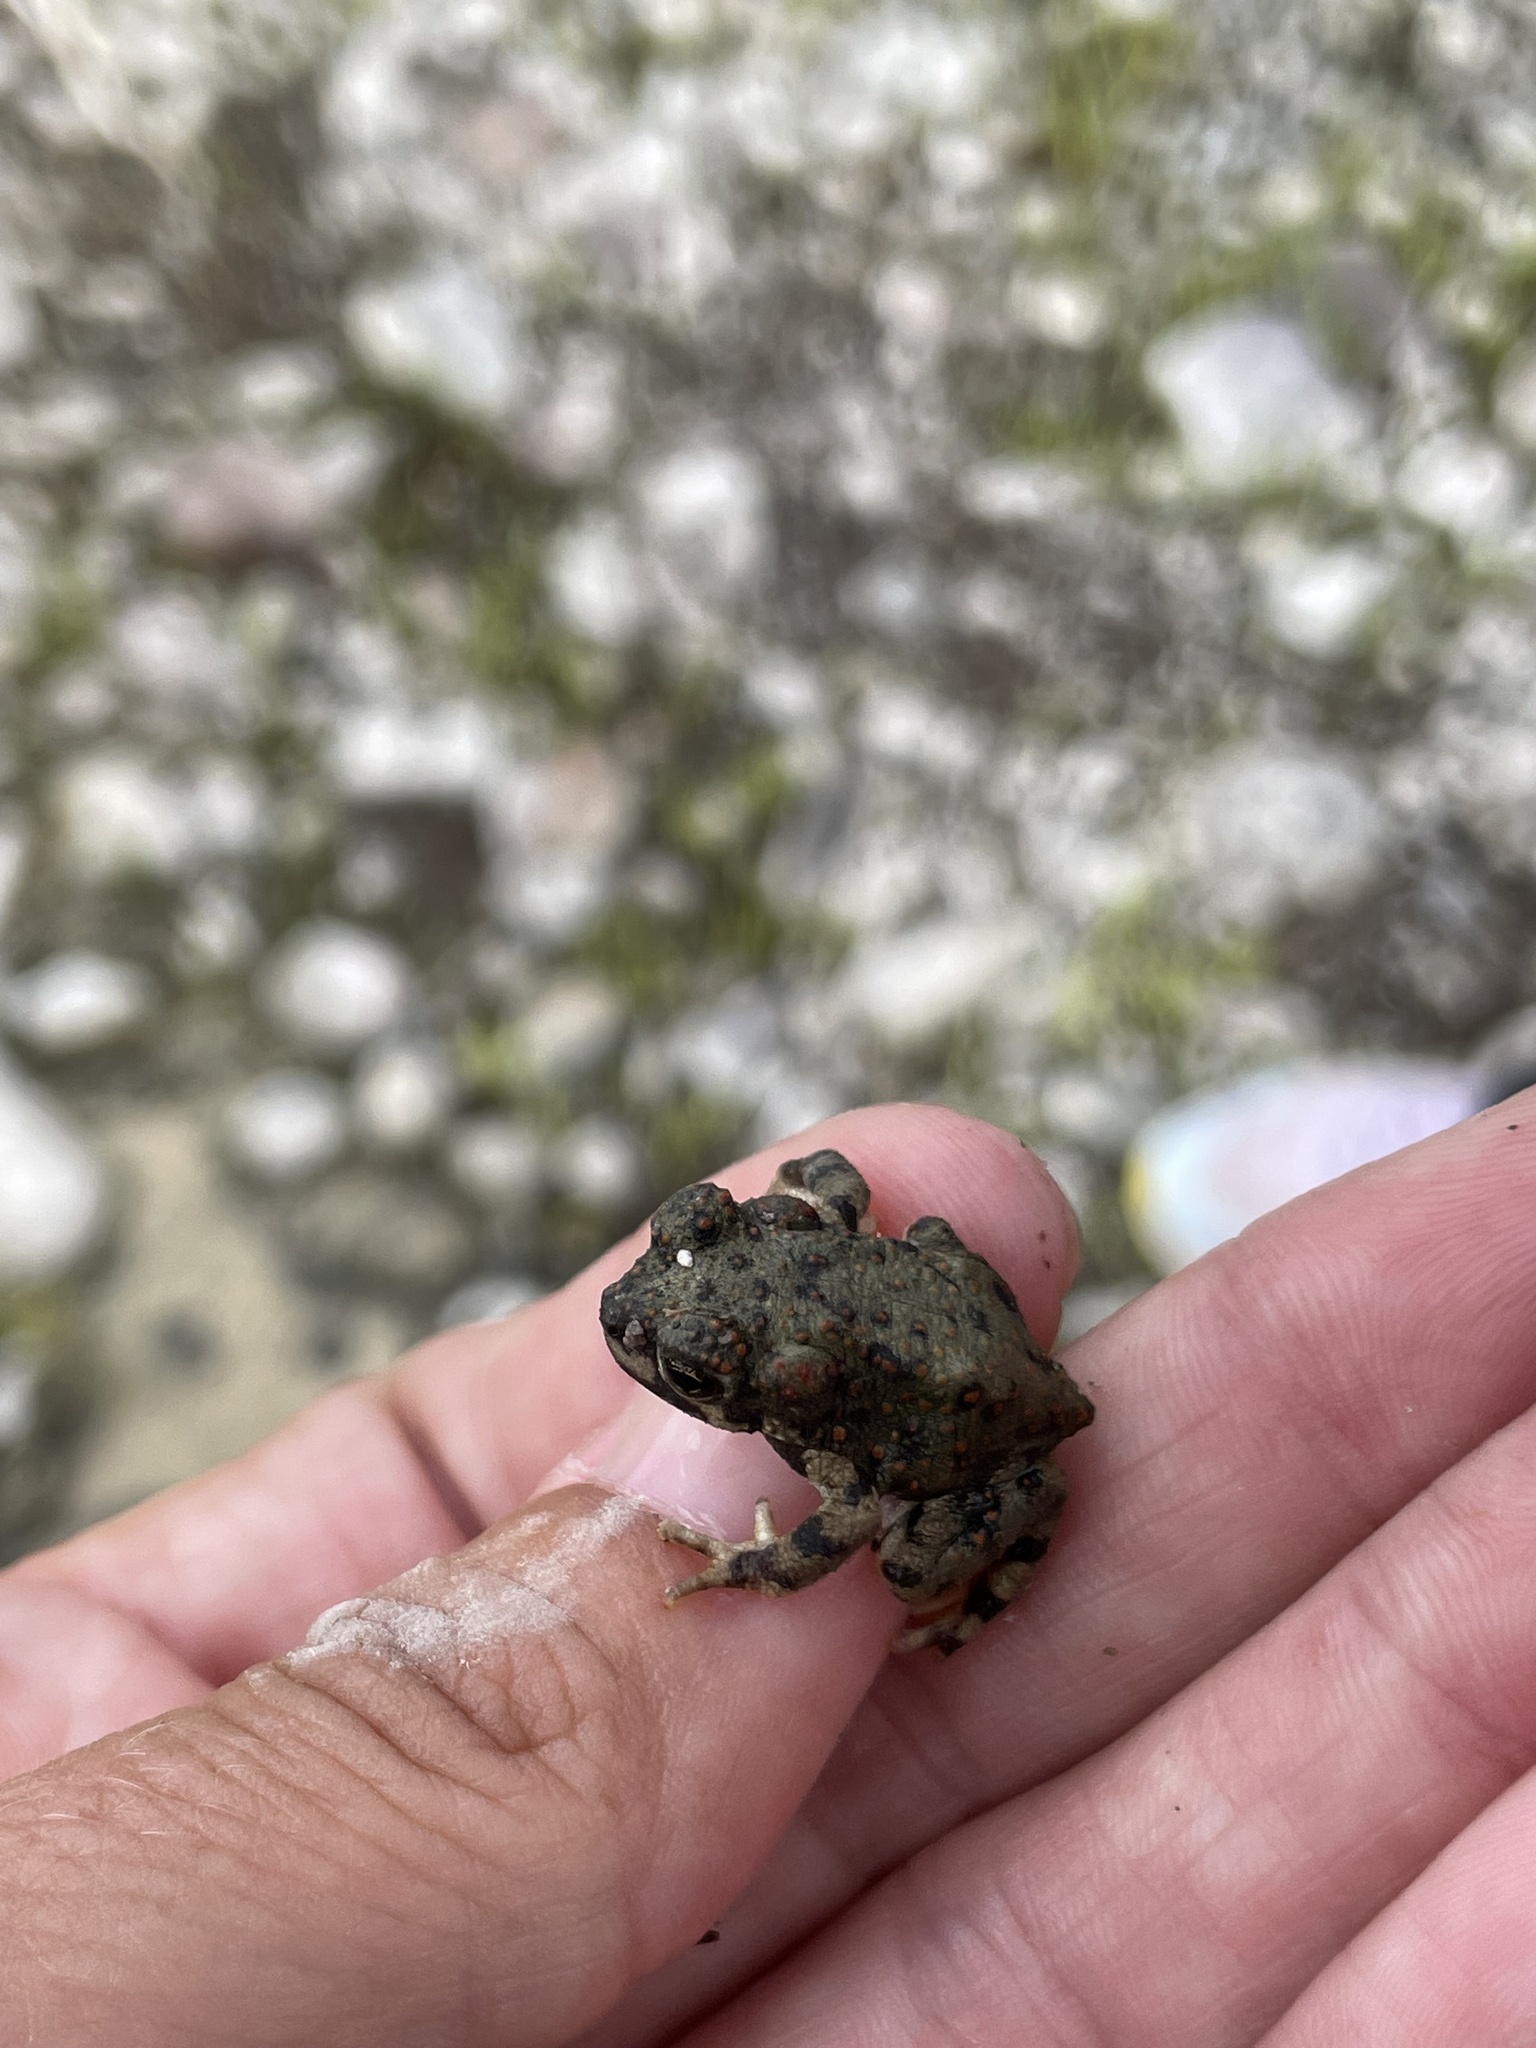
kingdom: Animalia
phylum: Chordata
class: Amphibia
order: Anura
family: Bufonidae
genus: Anaxyrus
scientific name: Anaxyrus punctatus
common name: Red-spotted toad
